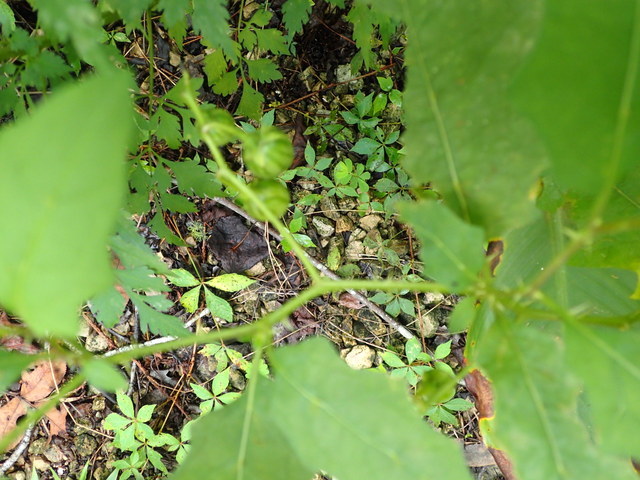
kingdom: Plantae
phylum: Tracheophyta
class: Magnoliopsida
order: Solanales
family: Solanaceae
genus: Solanum
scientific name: Solanum carolinense
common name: Horse-nettle
